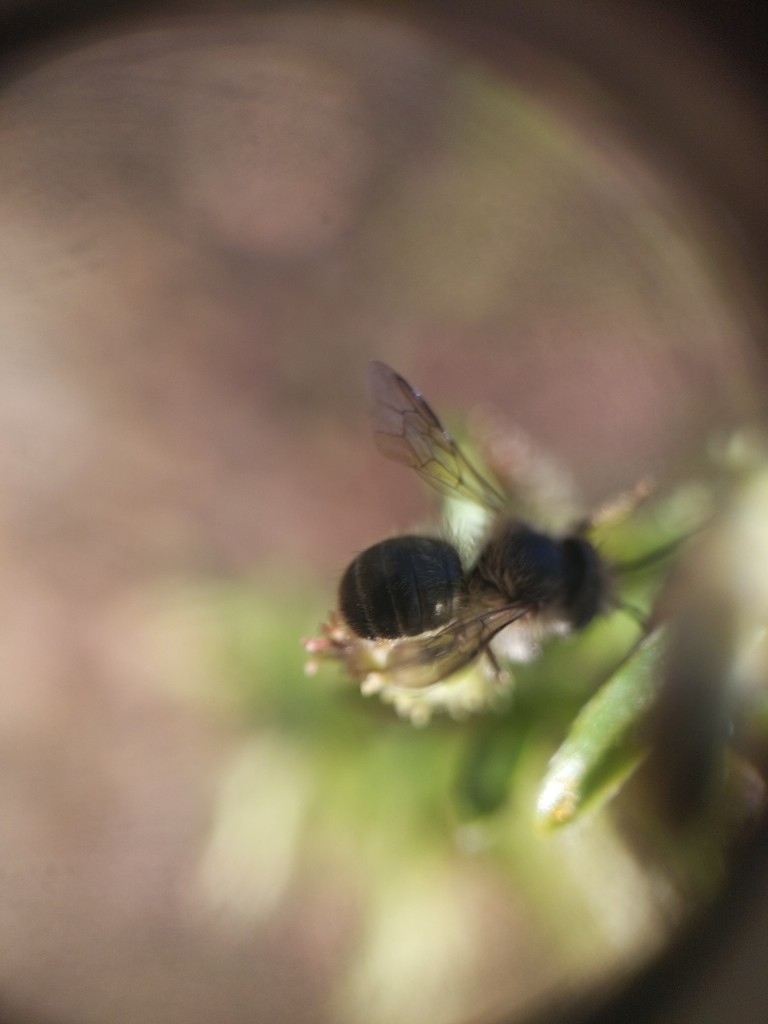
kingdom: Animalia
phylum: Arthropoda
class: Insecta
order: Hymenoptera
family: Megachilidae
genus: Osmia
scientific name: Osmia
